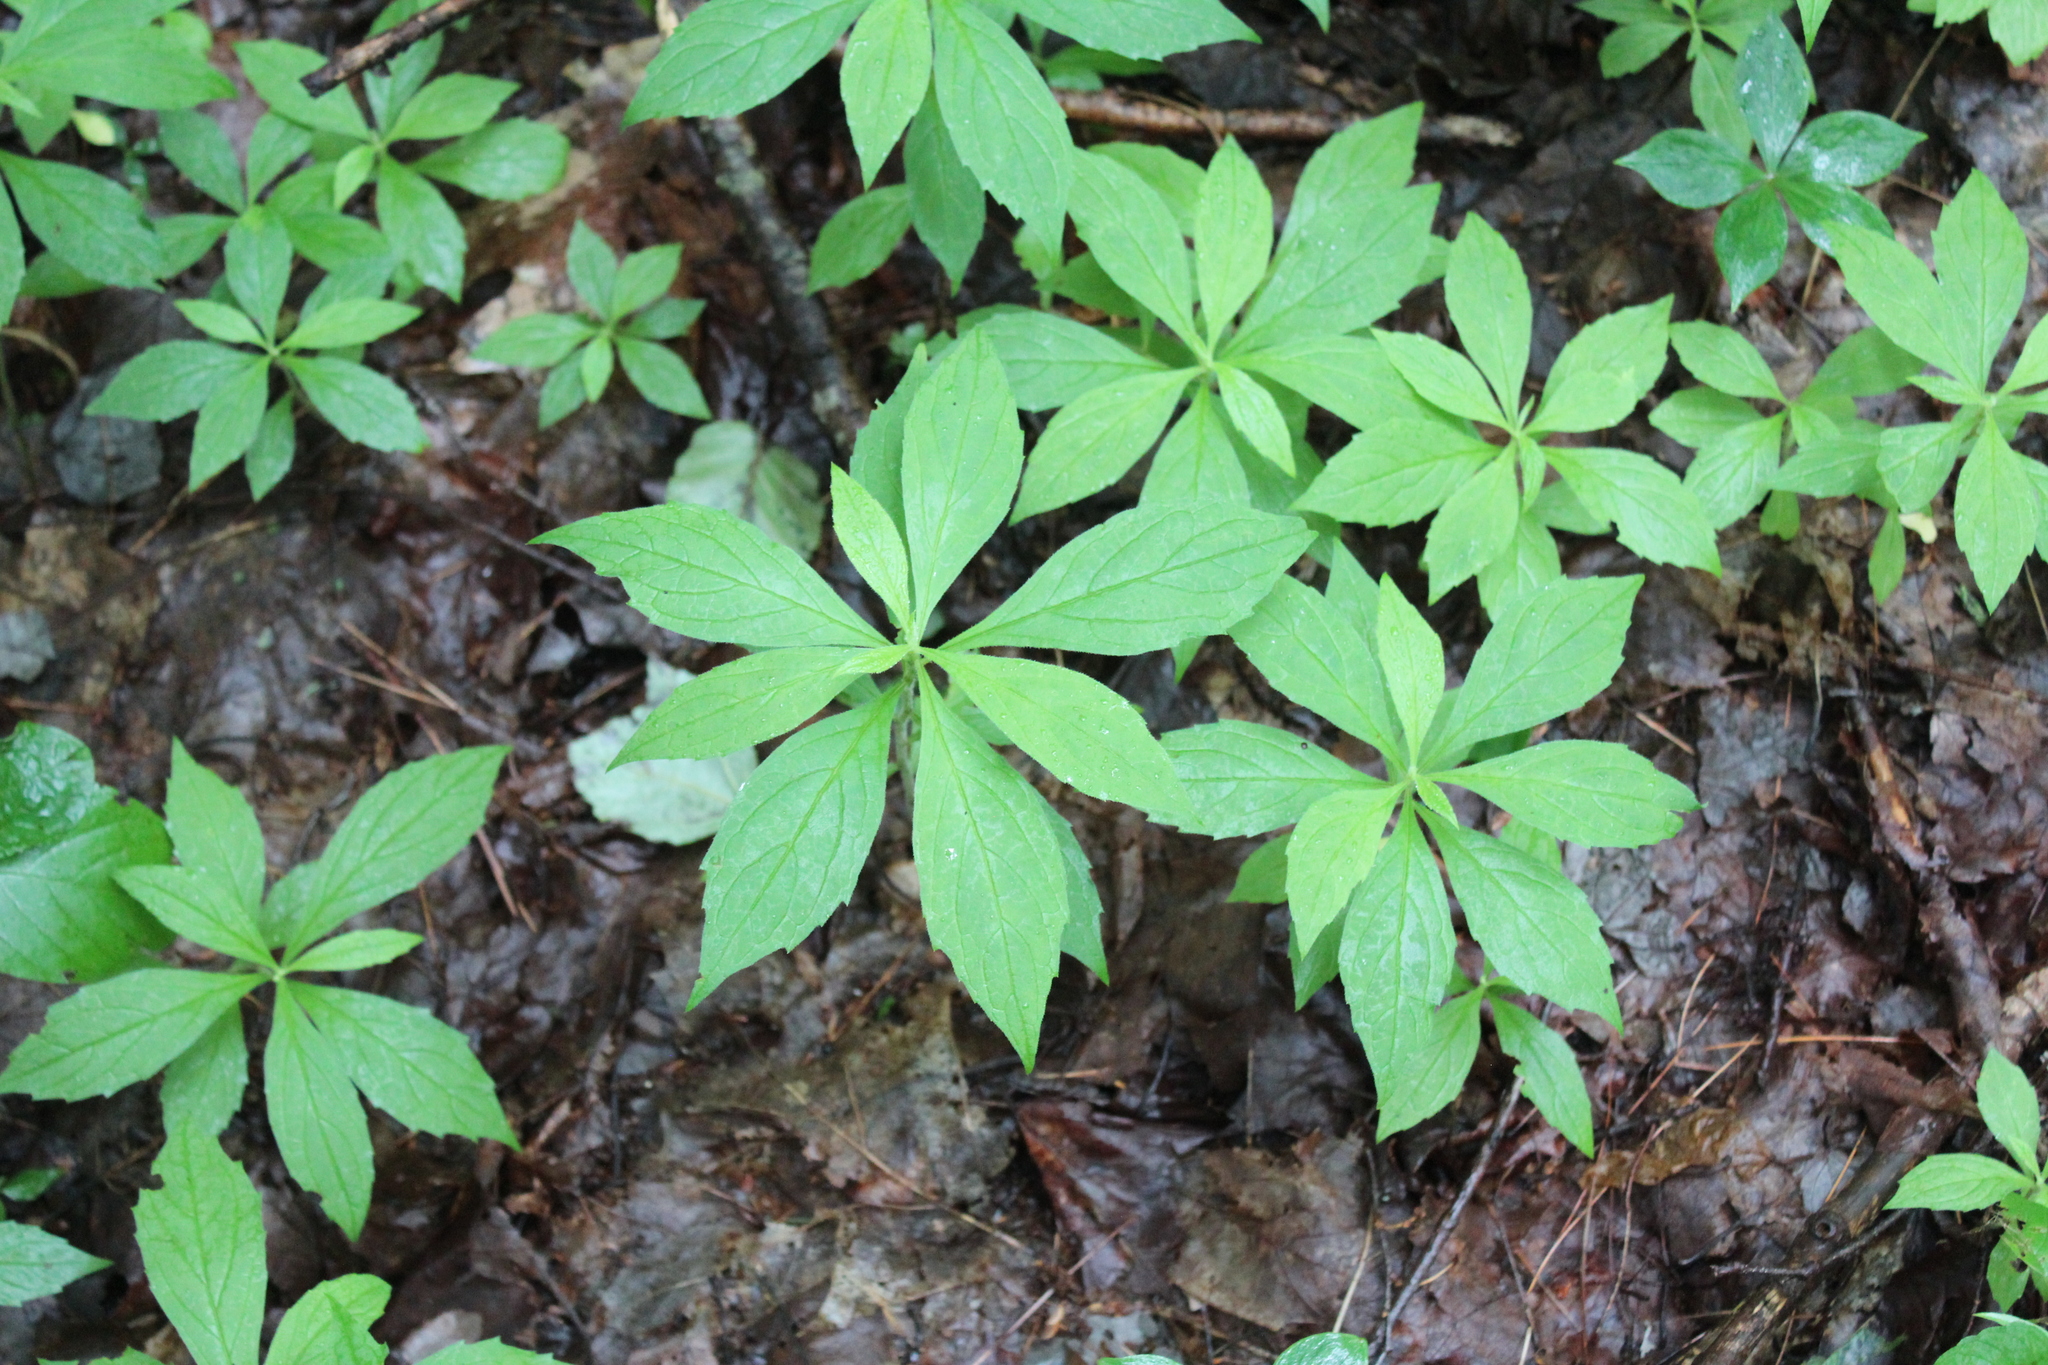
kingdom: Plantae
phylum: Tracheophyta
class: Magnoliopsida
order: Asterales
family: Asteraceae
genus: Oclemena
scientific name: Oclemena acuminata
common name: Mountain aster
